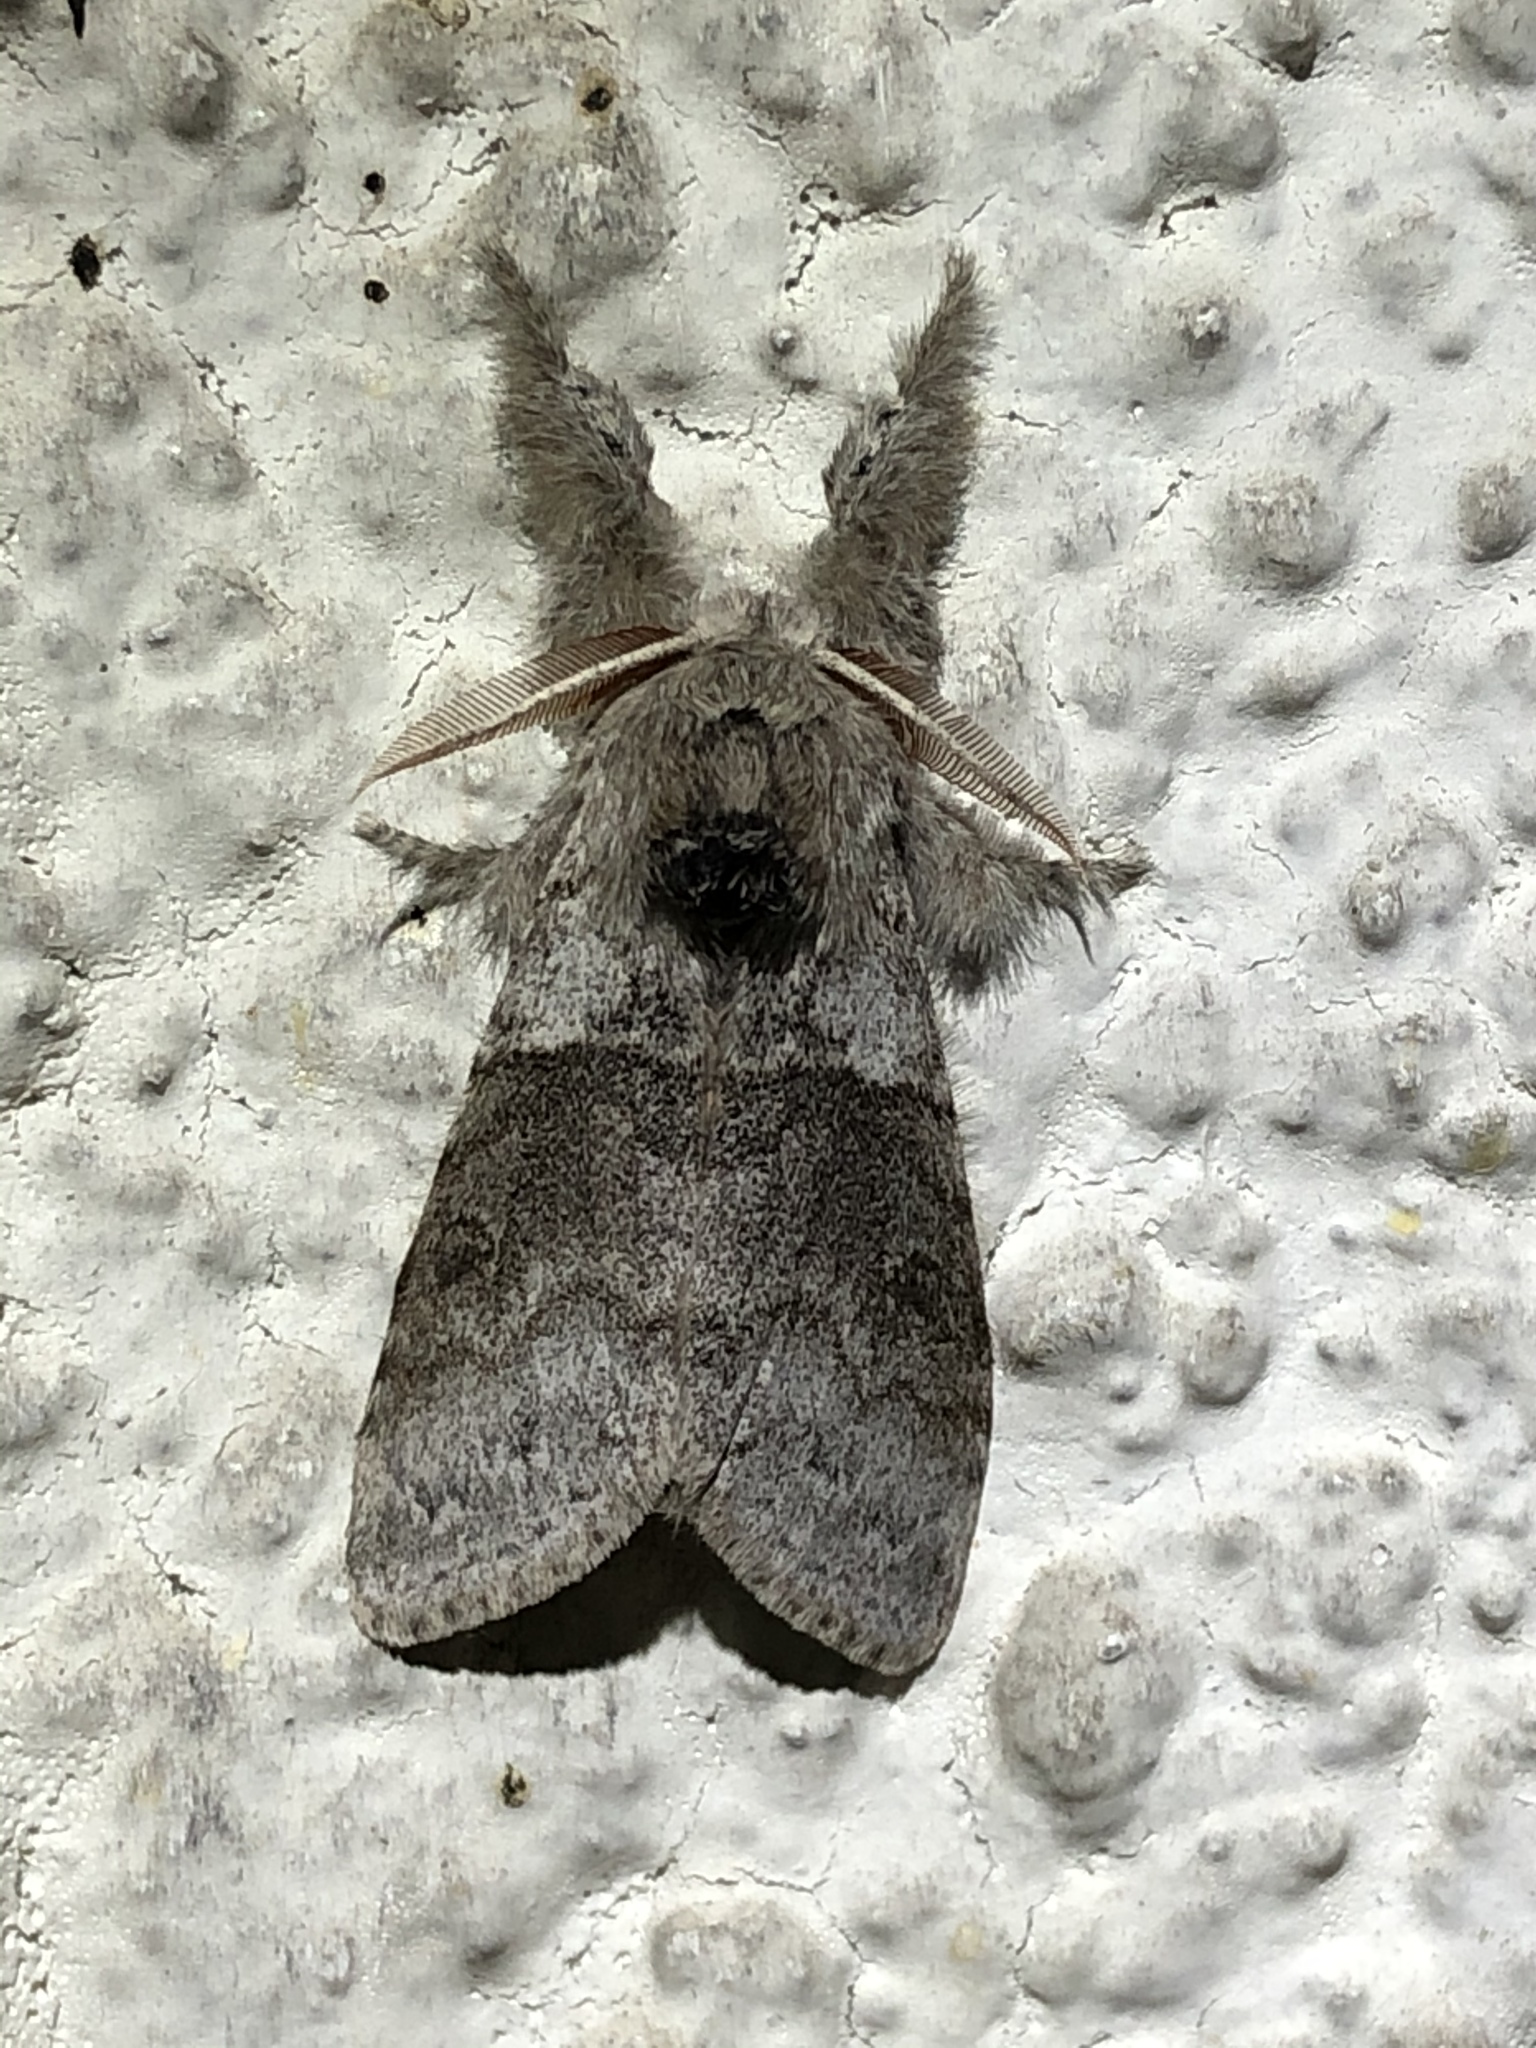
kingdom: Animalia
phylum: Arthropoda
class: Insecta
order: Lepidoptera
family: Erebidae
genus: Calliteara
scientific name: Calliteara pudibunda
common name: Pale tussock
